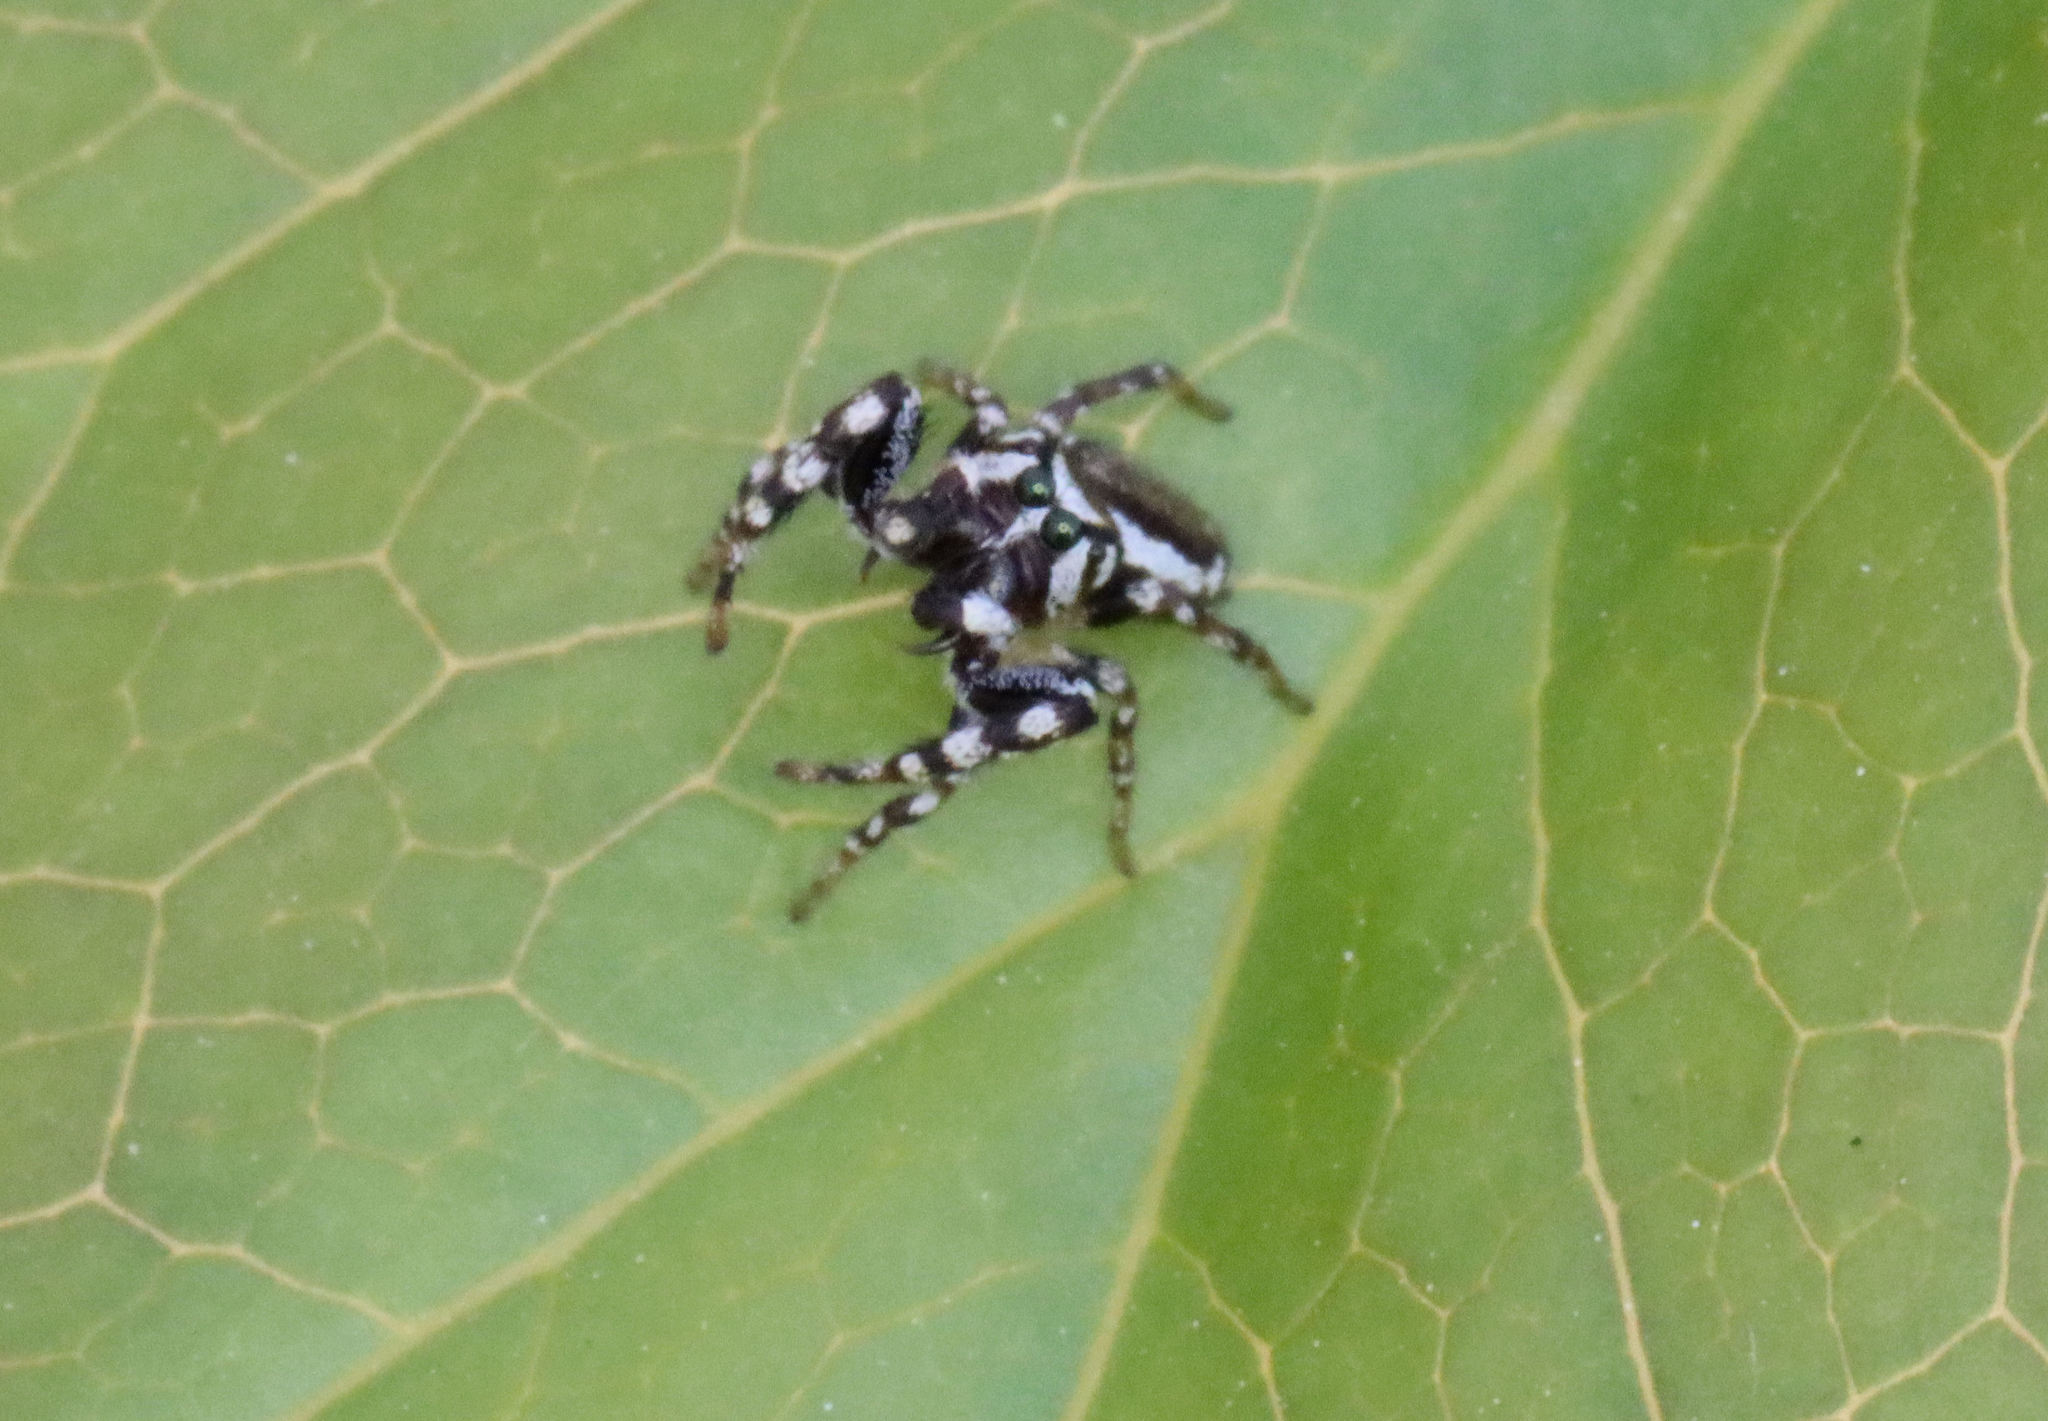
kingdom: Animalia
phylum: Arthropoda
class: Arachnida
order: Araneae
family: Salticidae
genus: Pelegrina
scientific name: Pelegrina proterva
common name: Common white-cheeked jumping spider
